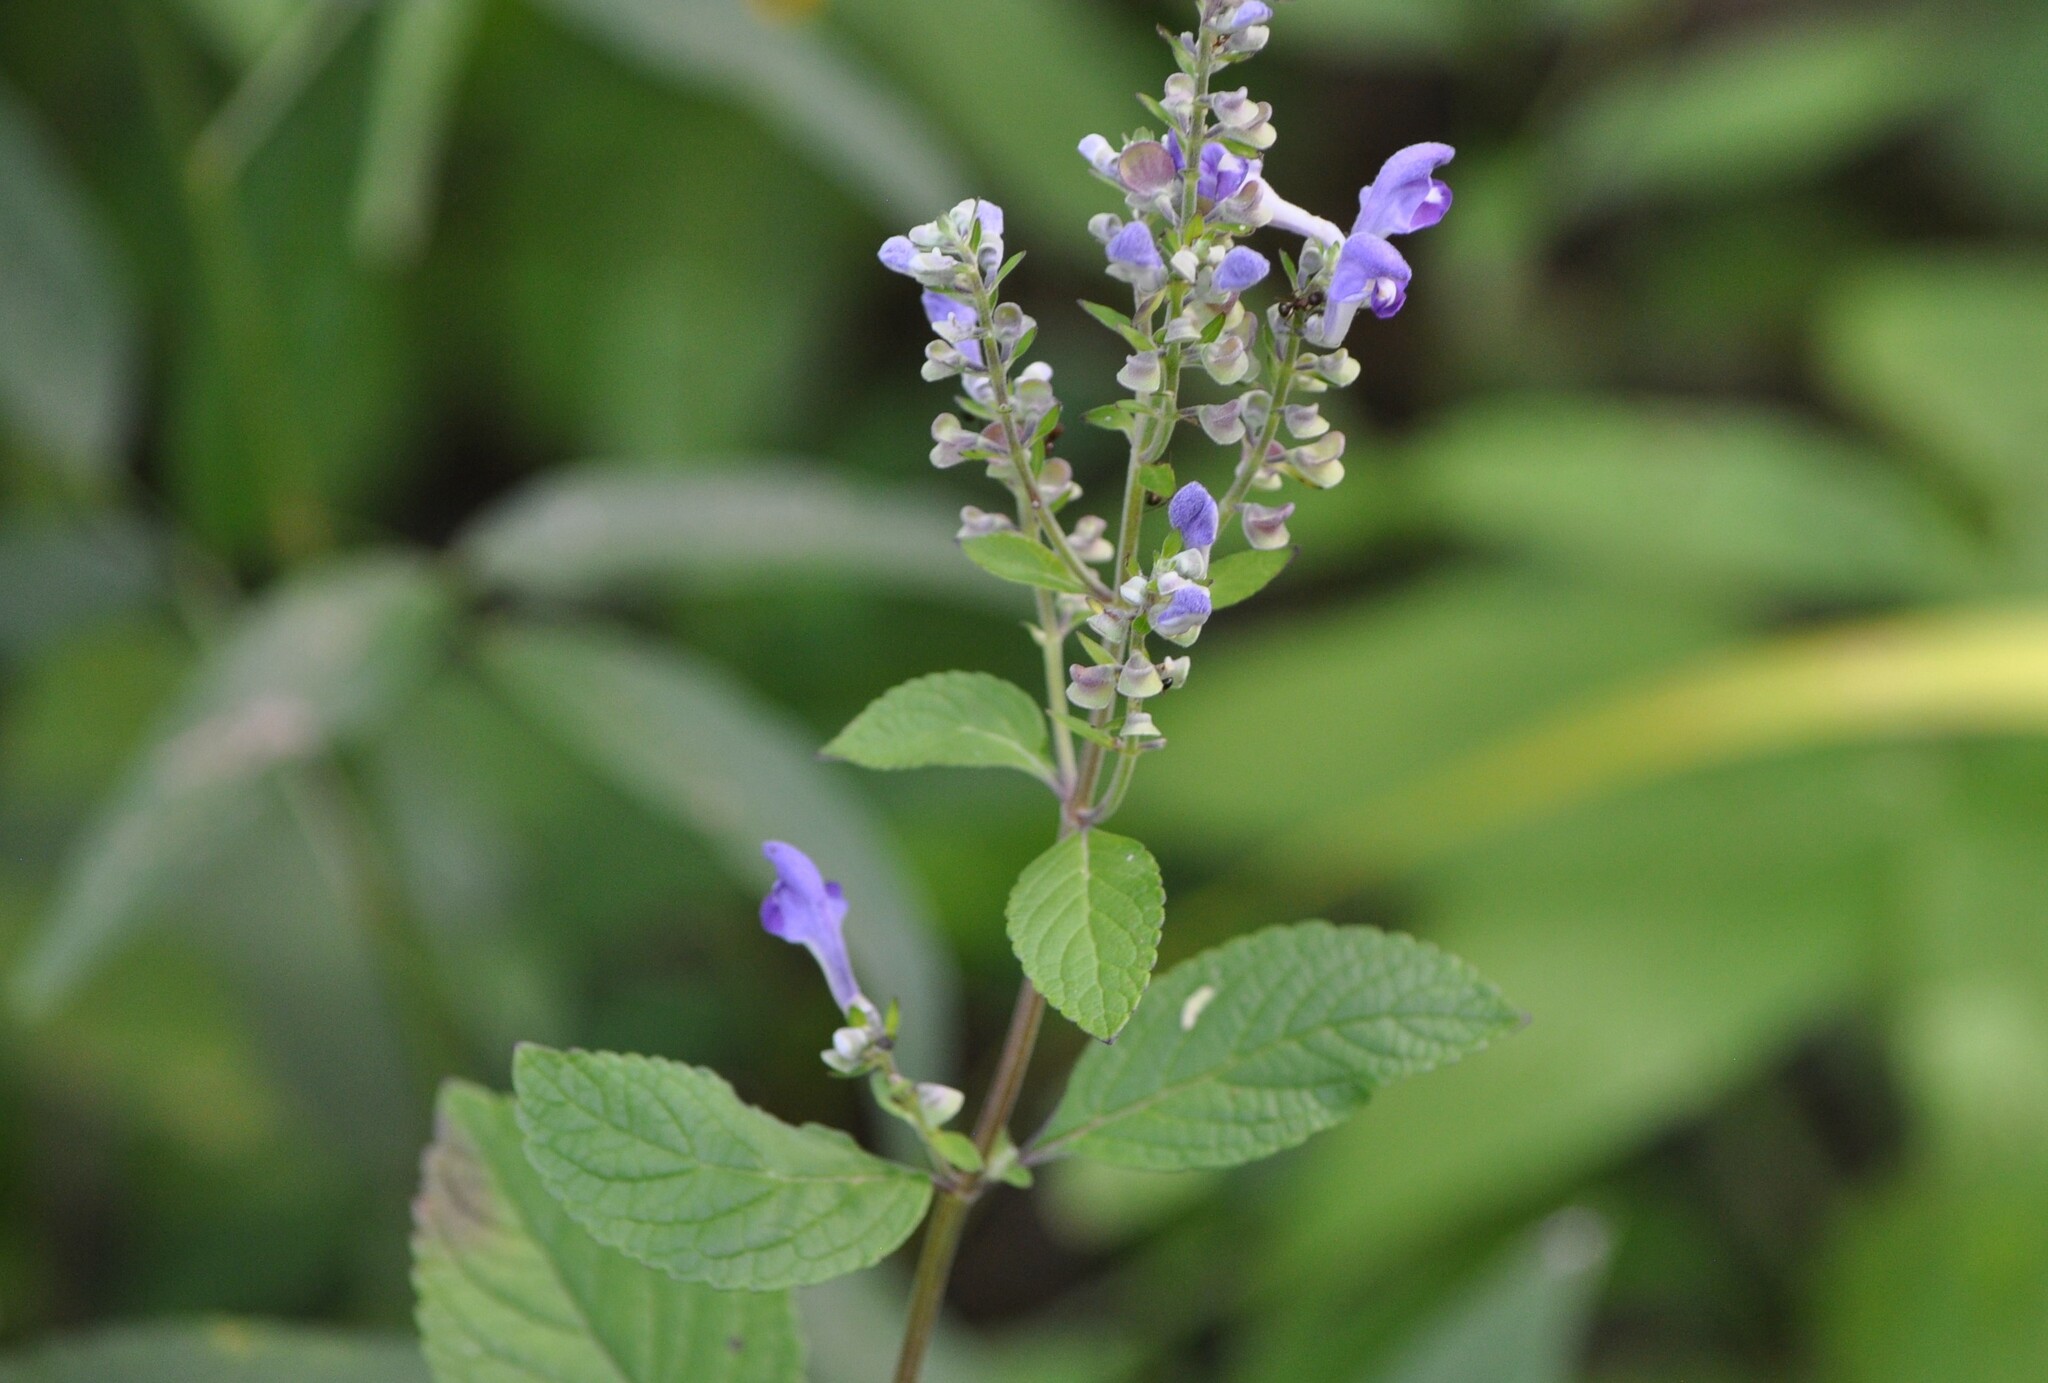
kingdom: Plantae
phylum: Tracheophyta
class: Magnoliopsida
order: Lamiales
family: Lamiaceae
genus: Scutellaria
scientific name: Scutellaria incana
